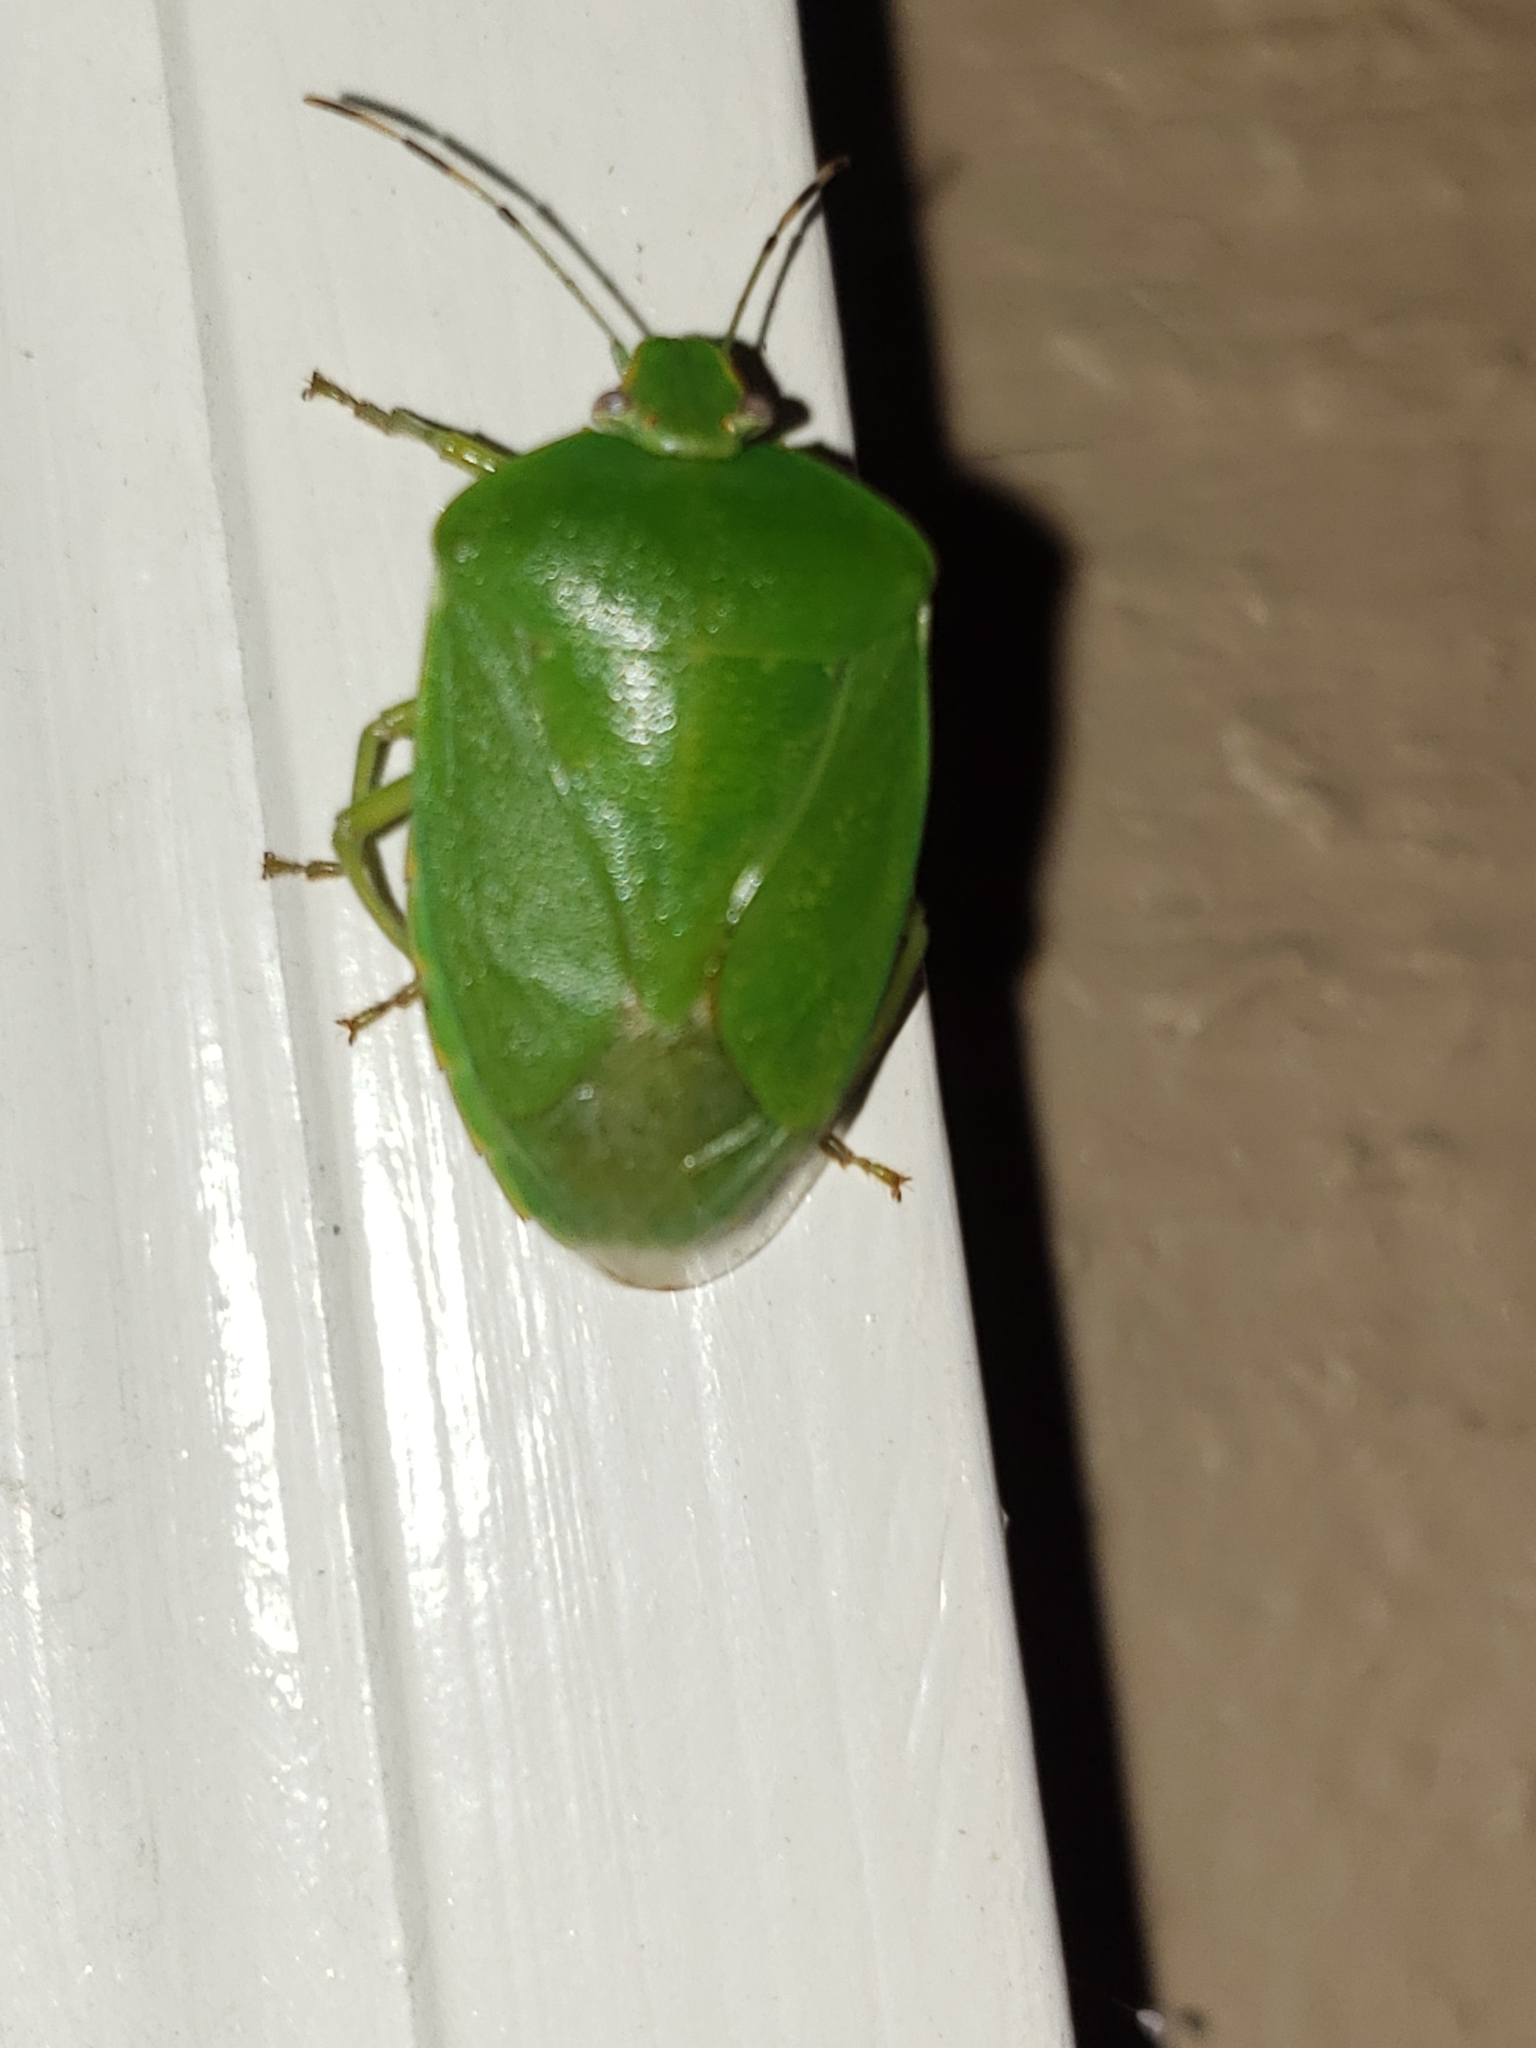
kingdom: Animalia
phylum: Arthropoda
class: Insecta
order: Hemiptera
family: Pentatomidae
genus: Chinavia
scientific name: Chinavia hilaris
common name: Green stink bug
